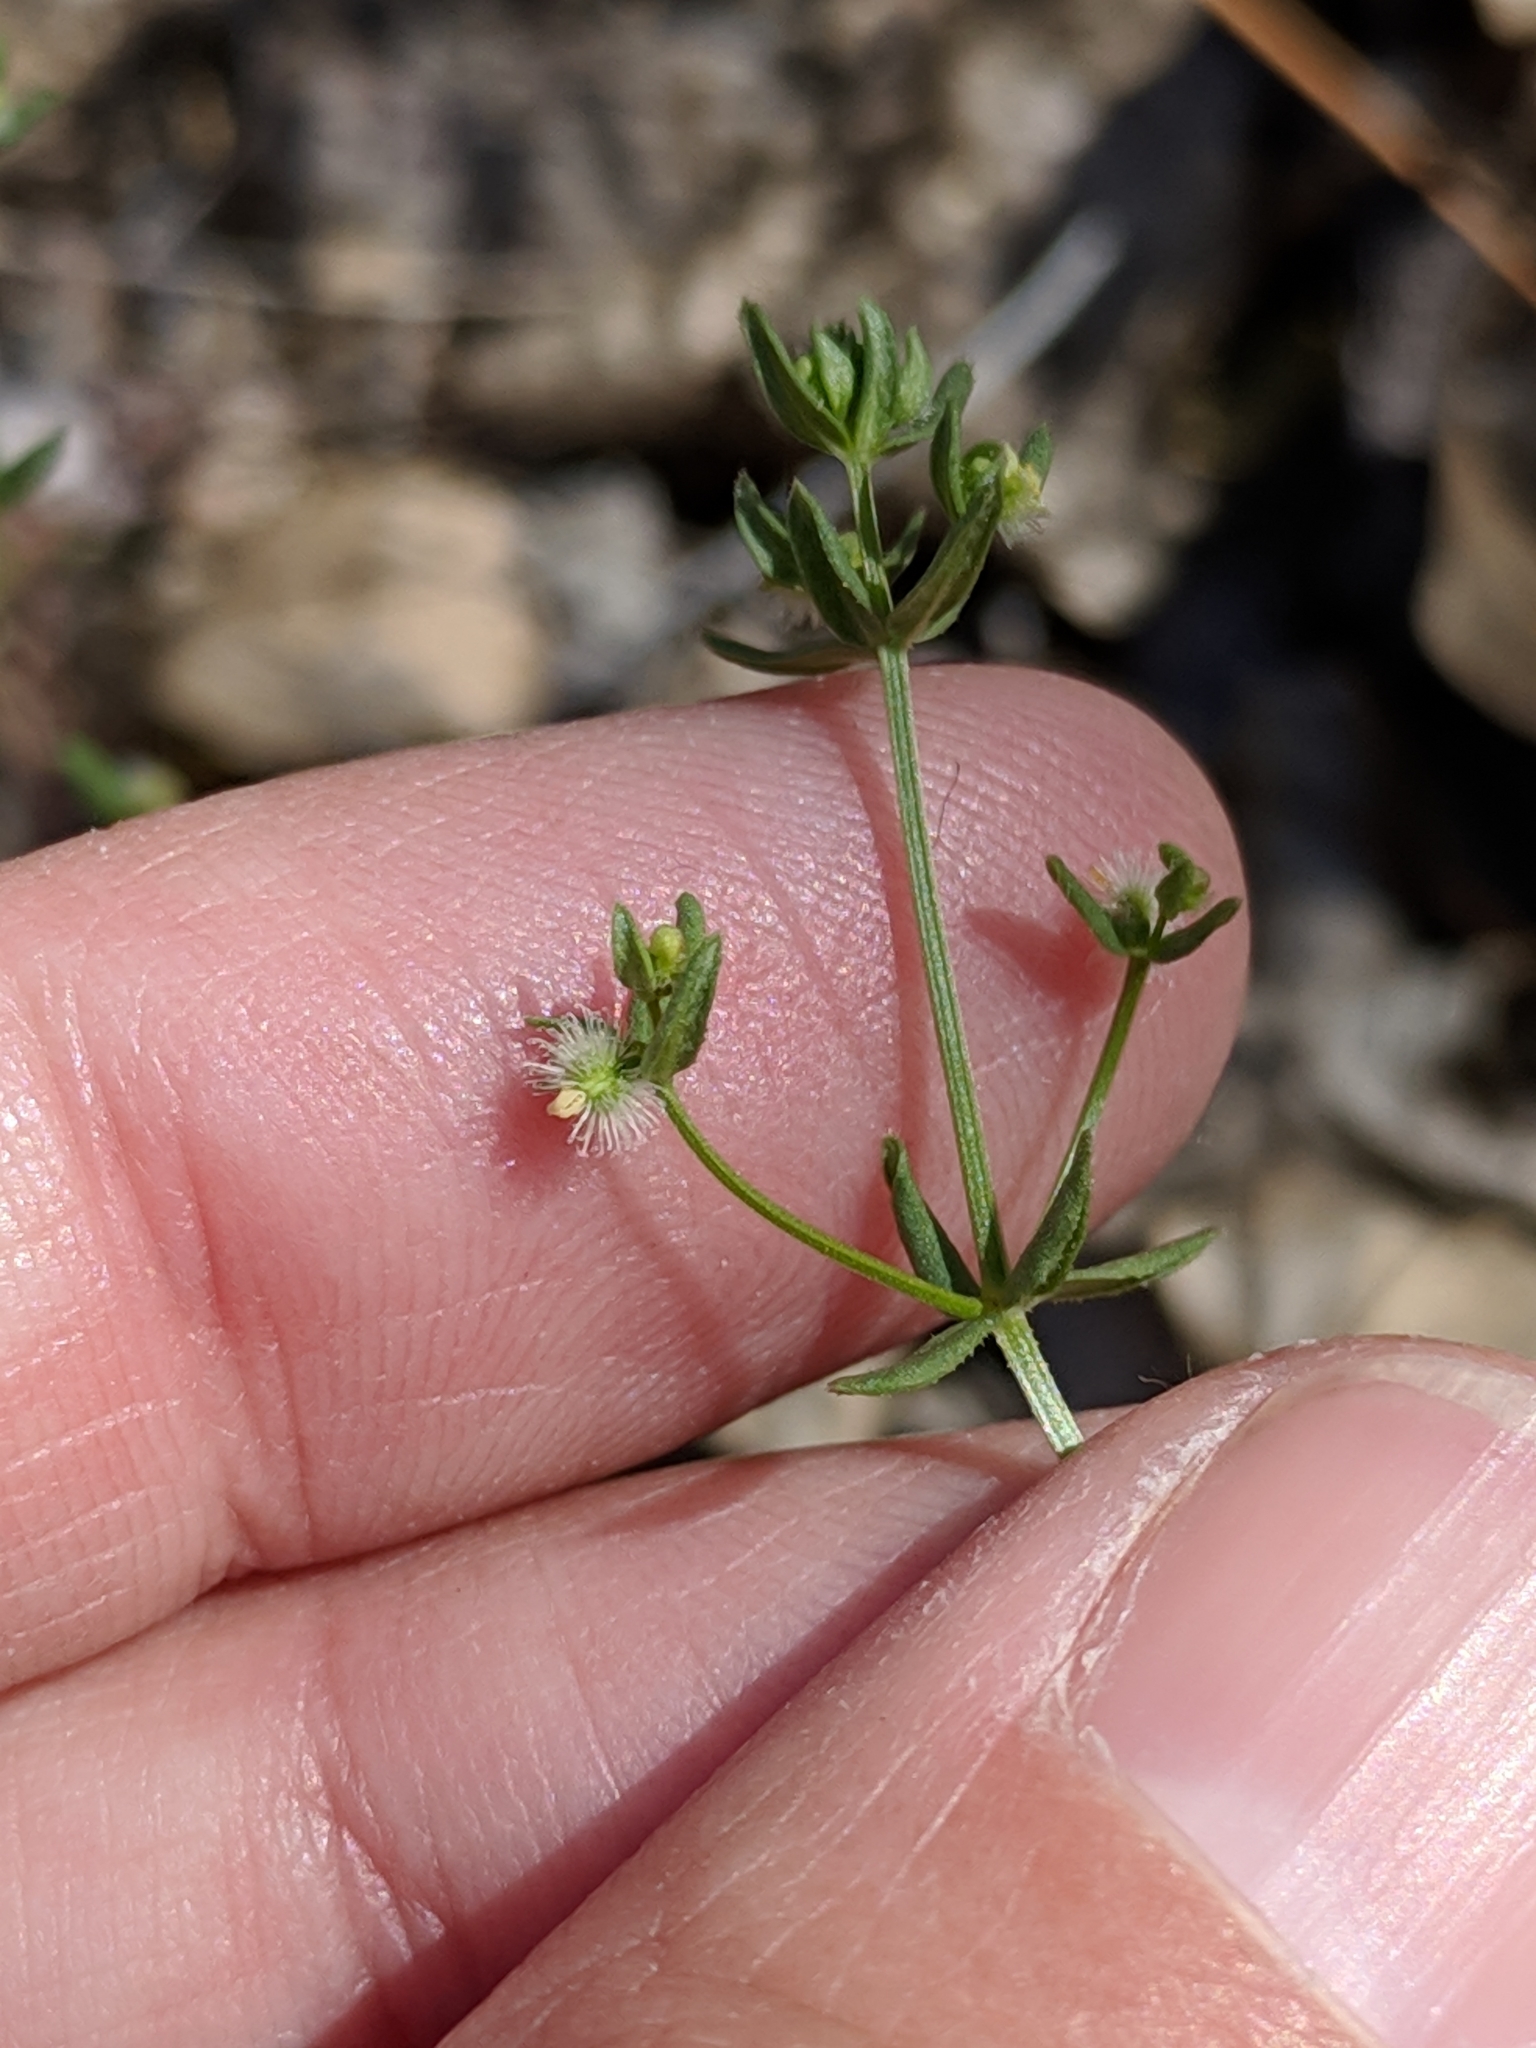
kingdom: Plantae
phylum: Tracheophyta
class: Magnoliopsida
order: Gentianales
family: Rubiaceae
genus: Galium
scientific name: Galium proliferum
